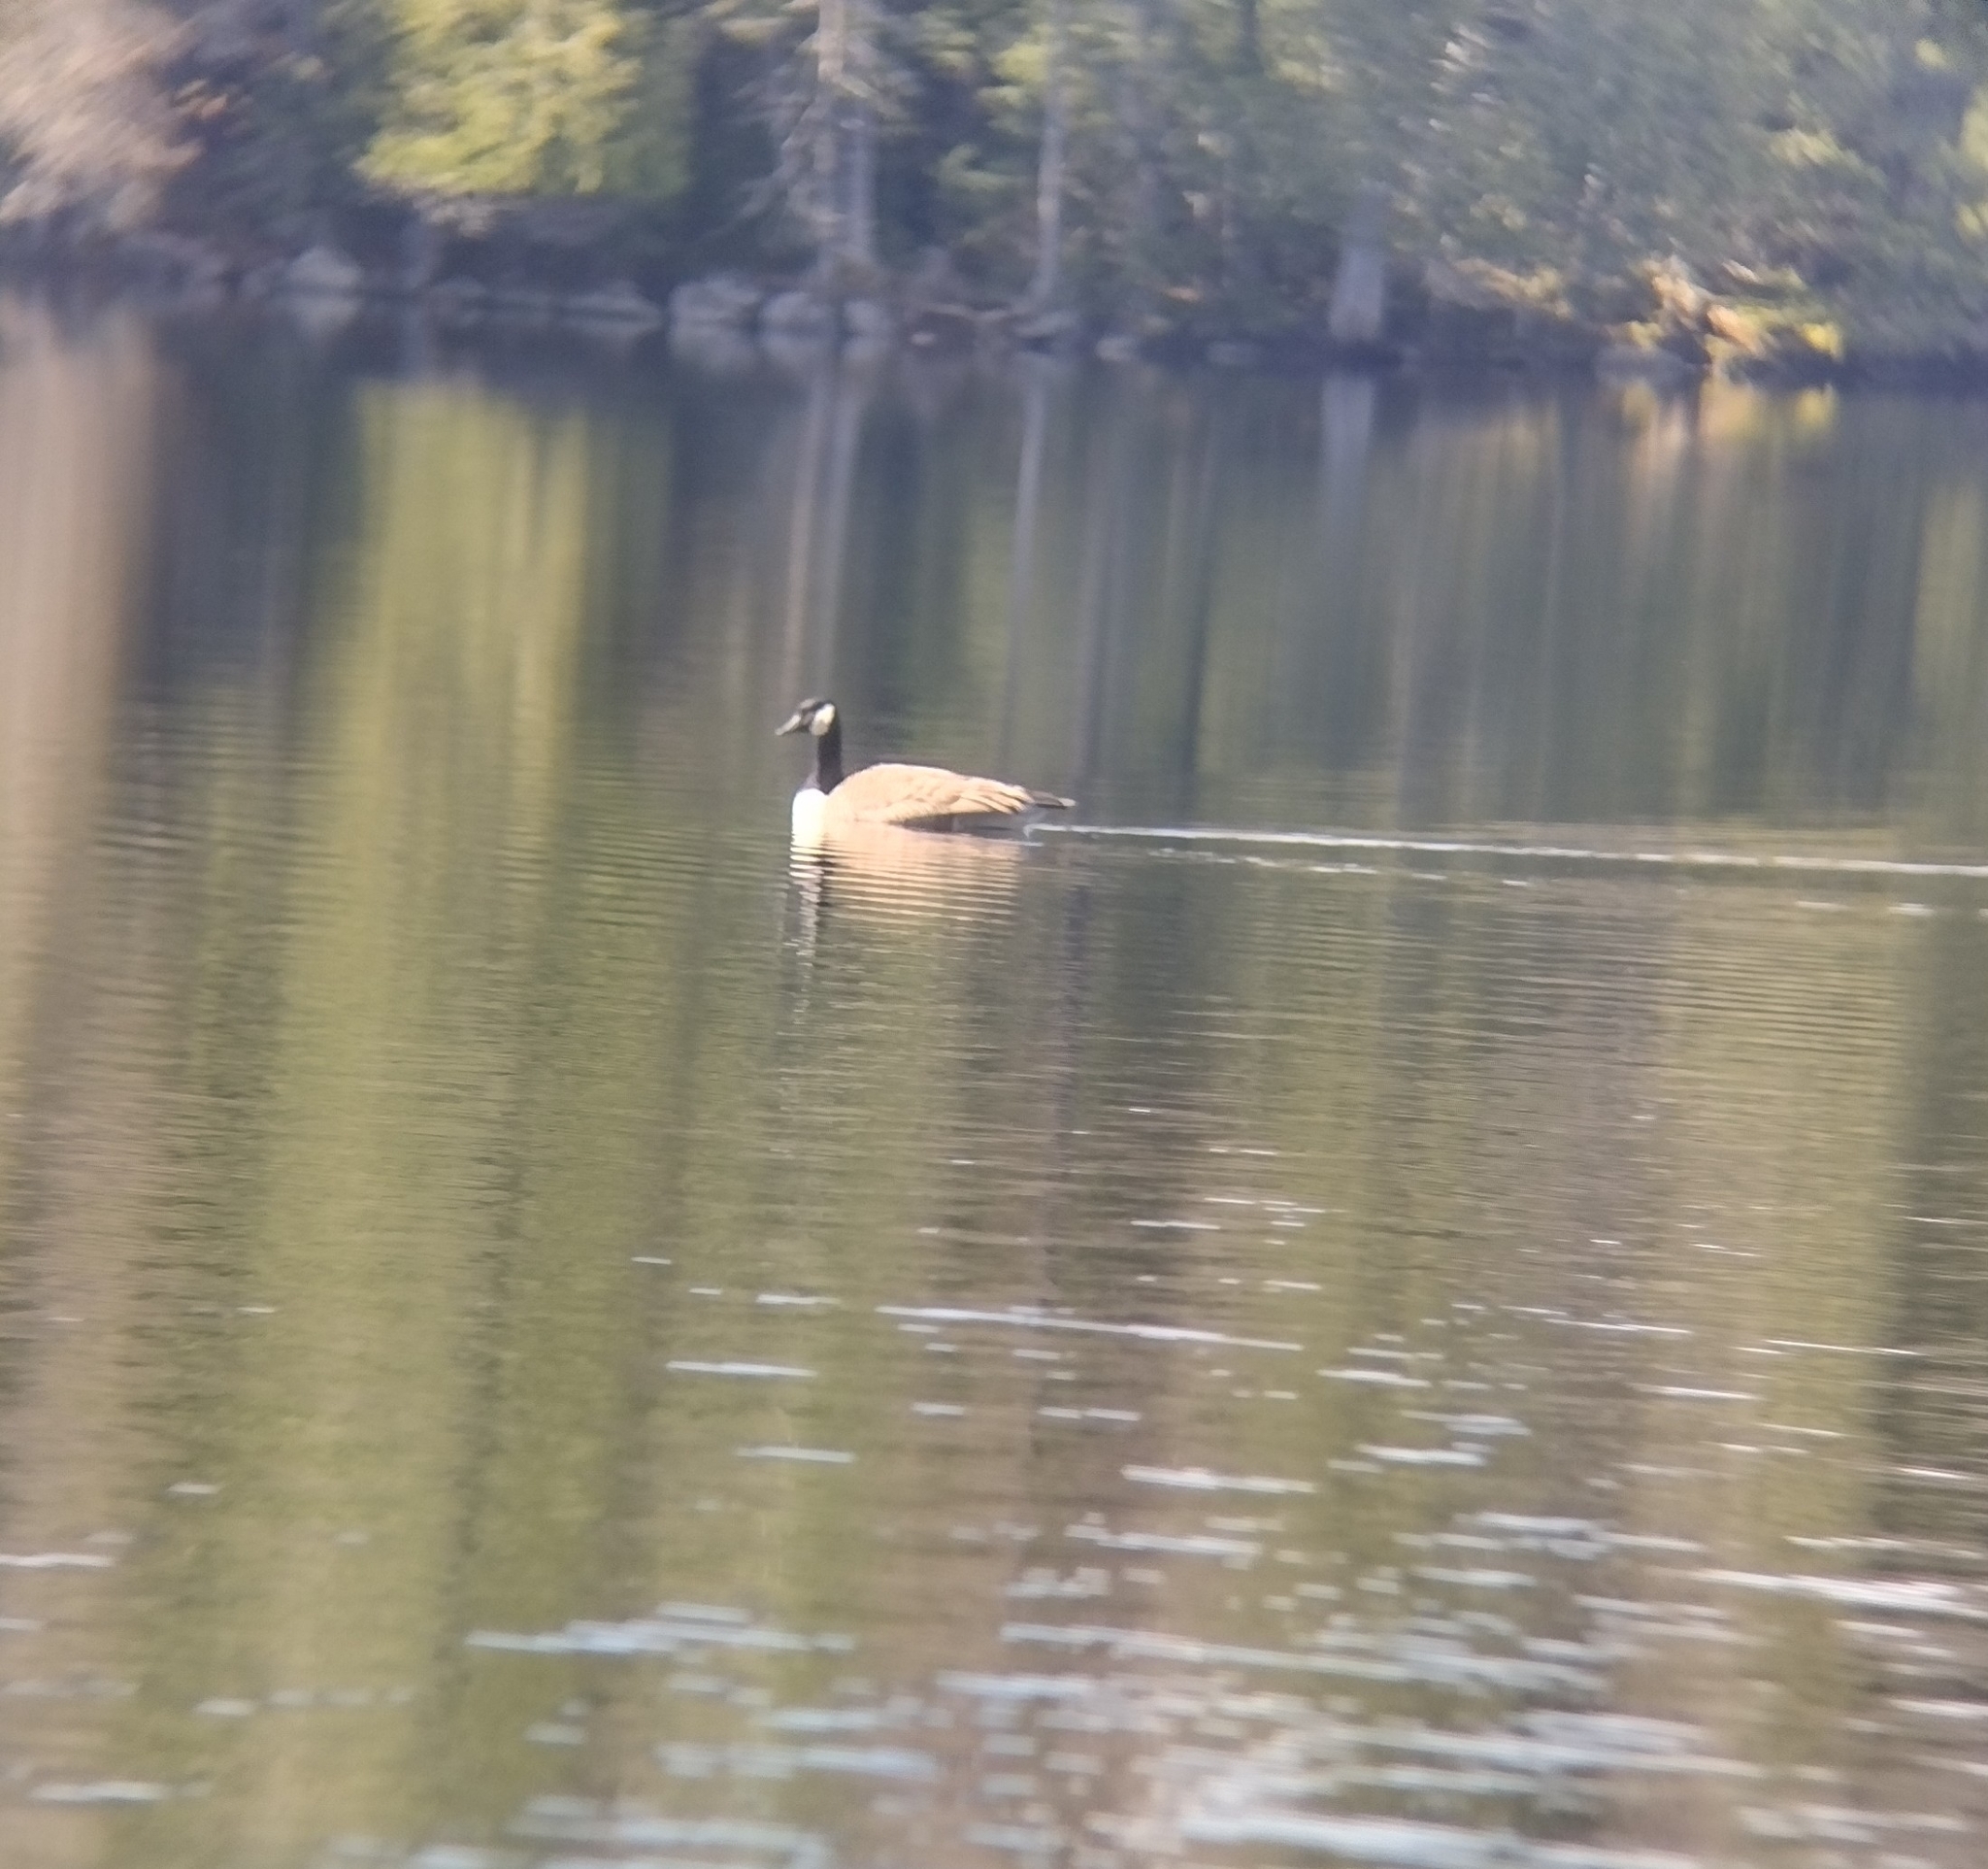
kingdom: Animalia
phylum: Chordata
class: Aves
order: Anseriformes
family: Anatidae
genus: Branta
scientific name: Branta canadensis
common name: Canada goose
